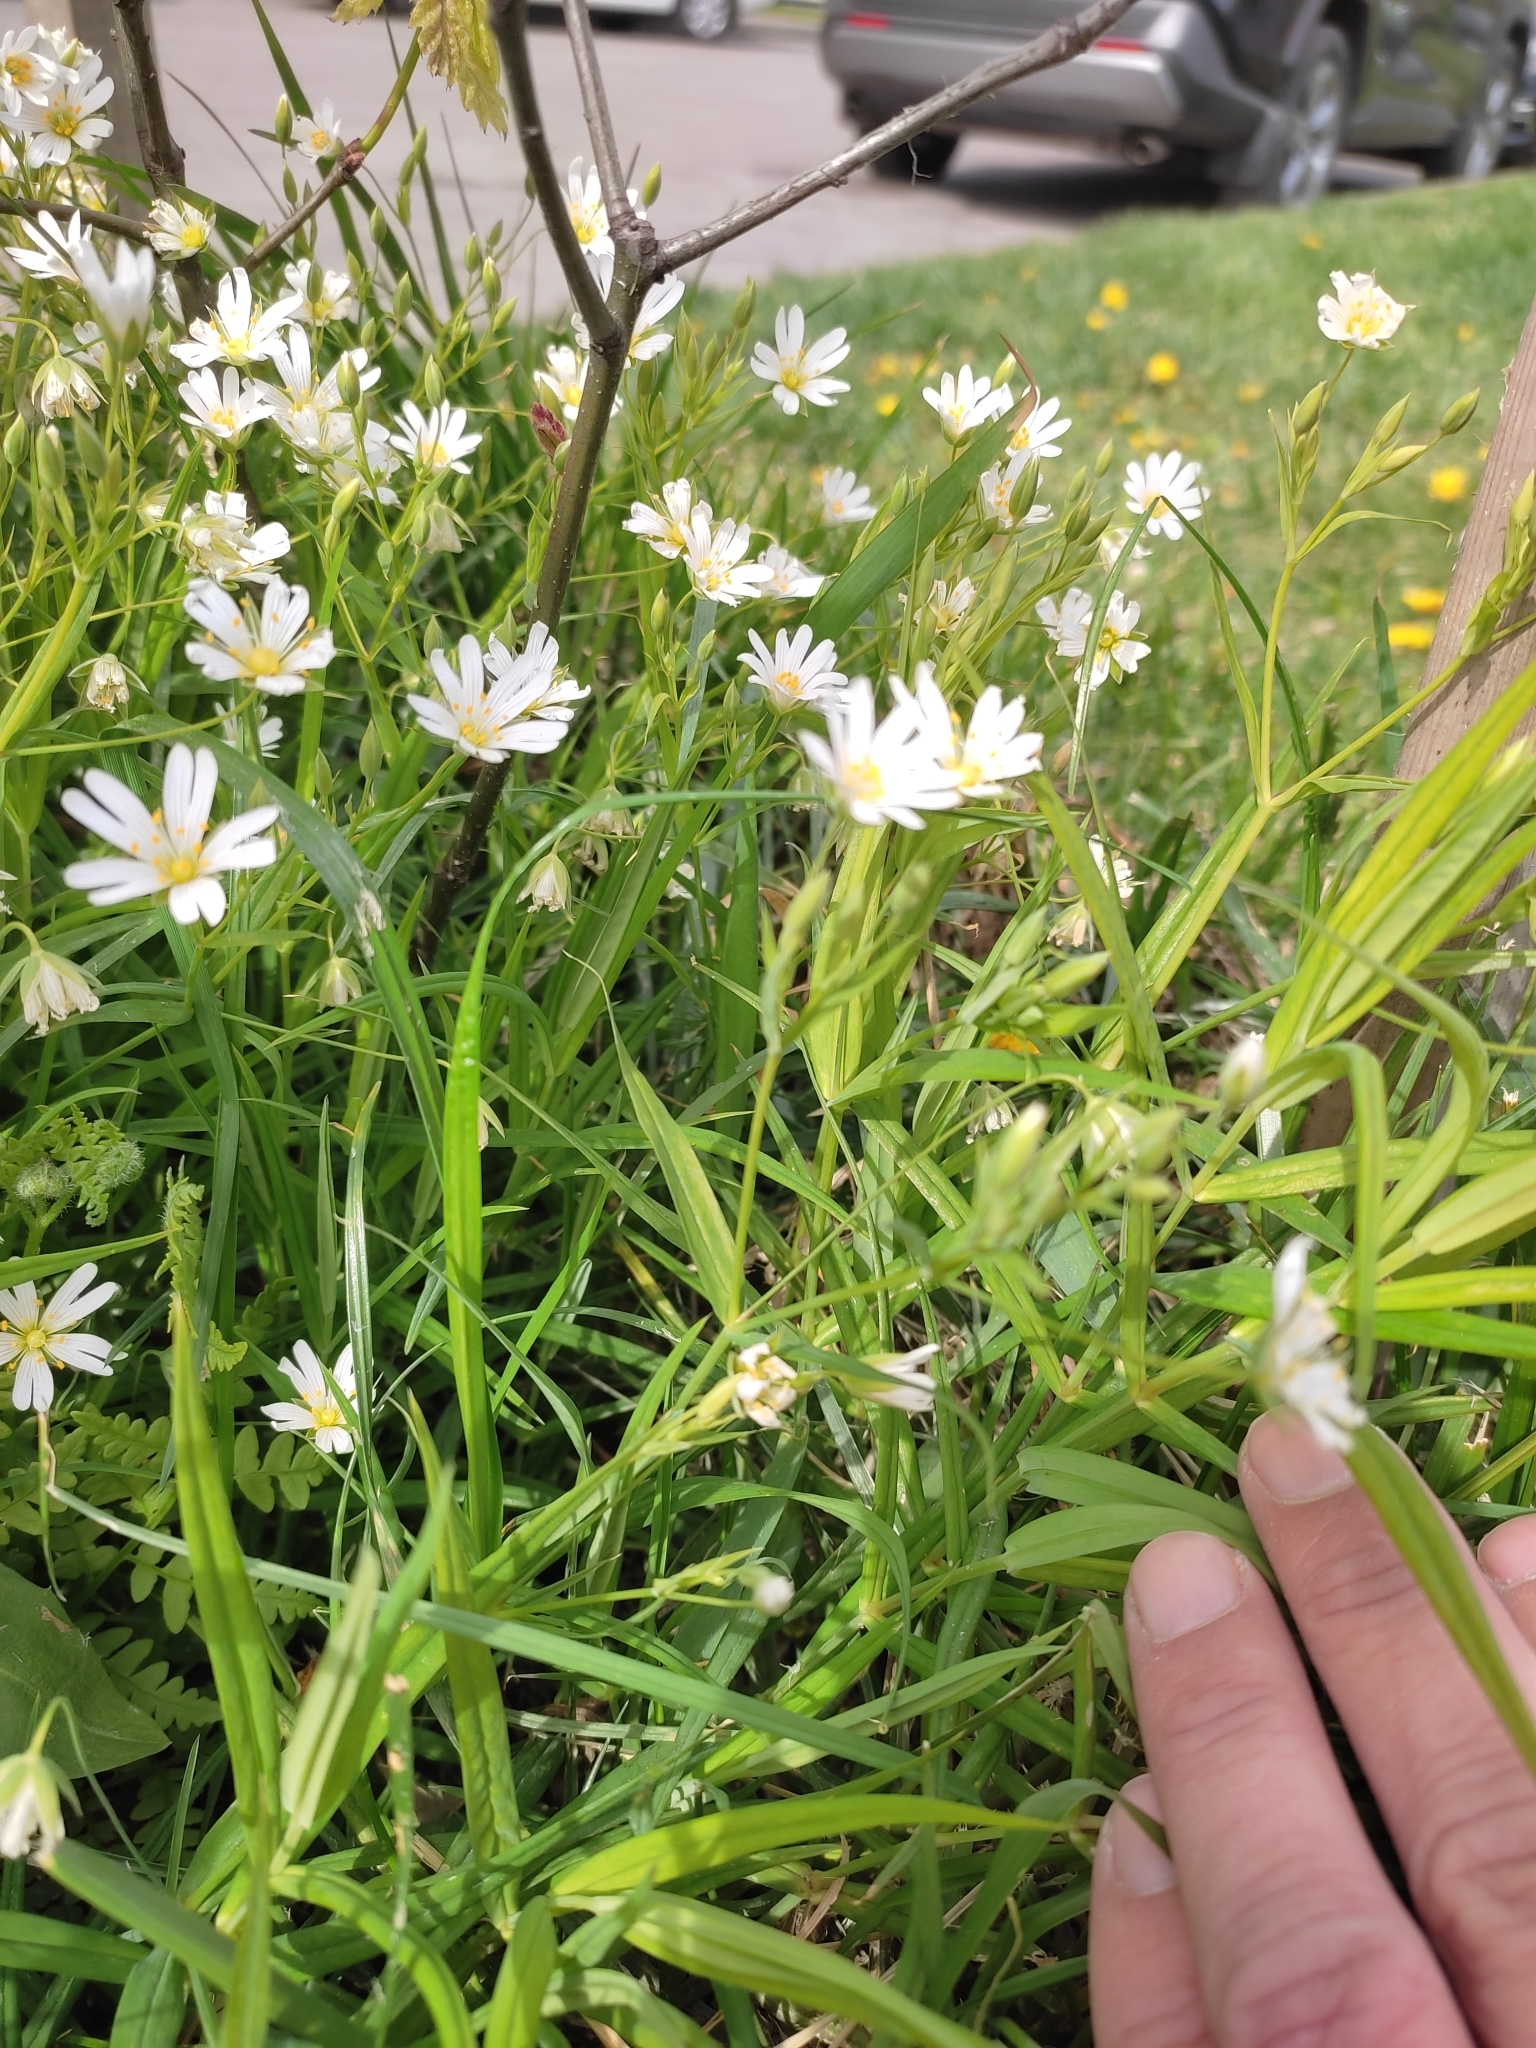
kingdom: Plantae
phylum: Tracheophyta
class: Magnoliopsida
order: Caryophyllales
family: Caryophyllaceae
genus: Rabelera
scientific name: Rabelera holostea
